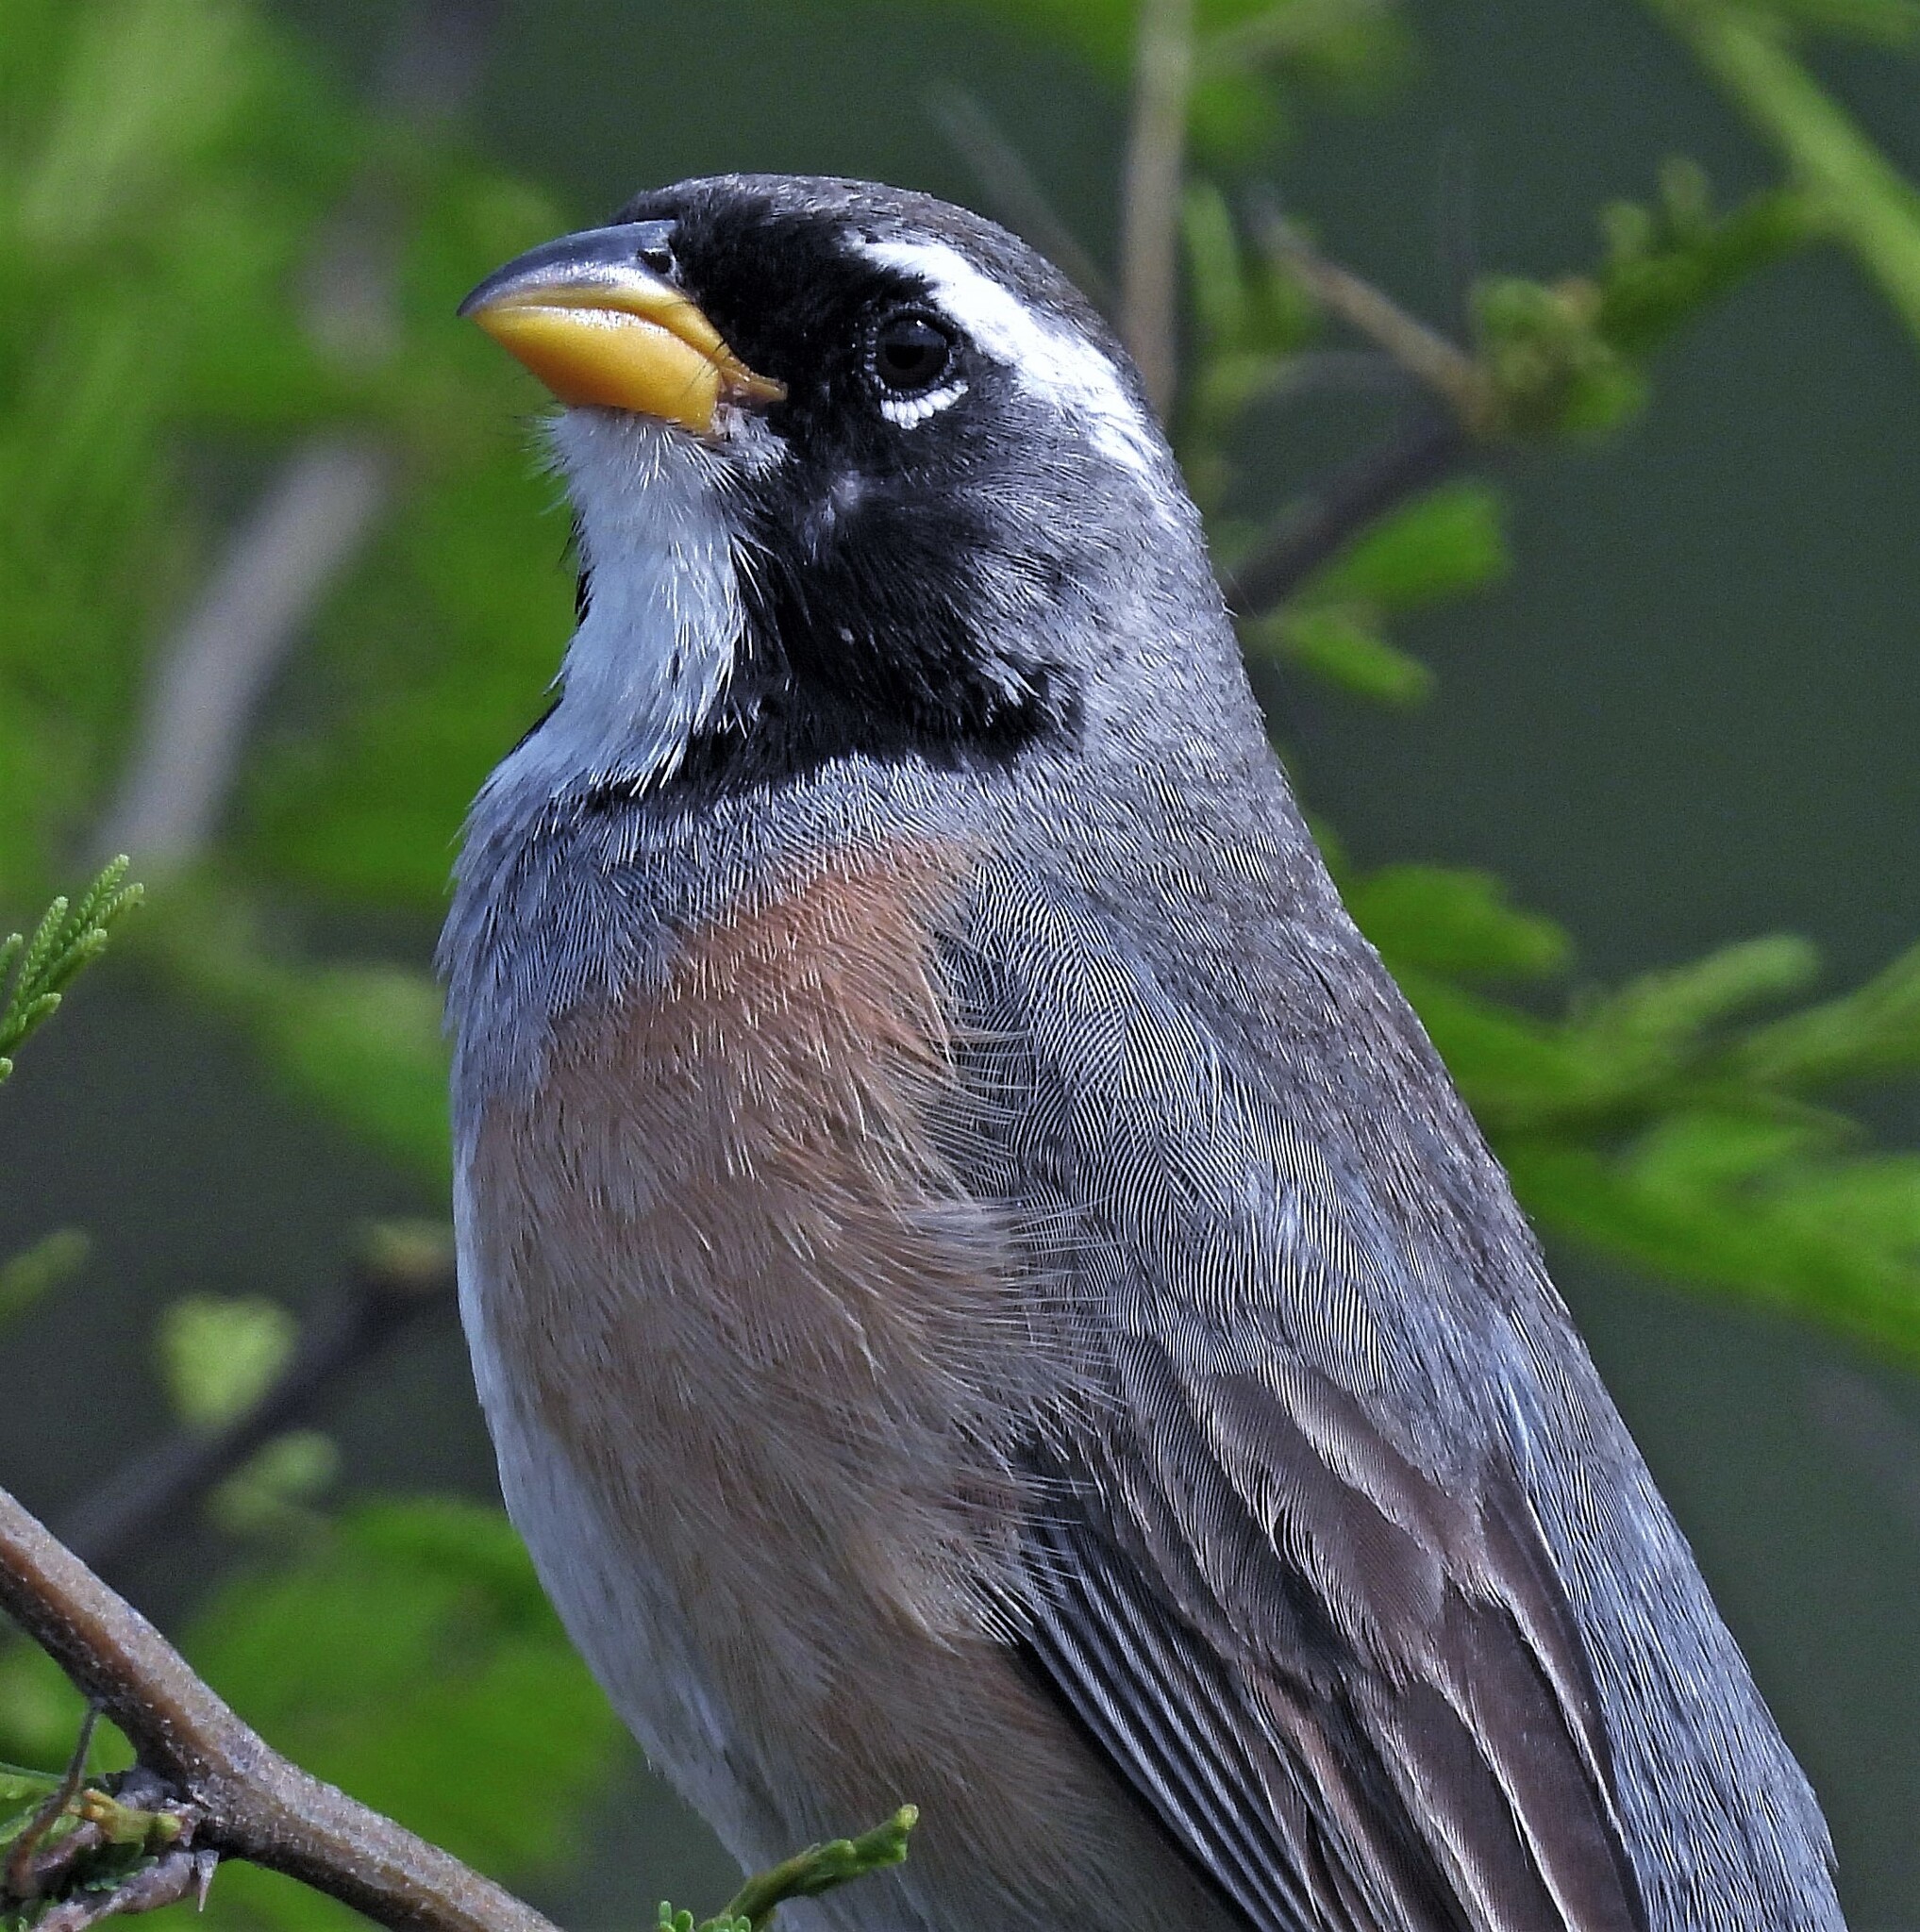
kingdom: Animalia
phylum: Chordata
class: Aves
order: Passeriformes
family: Thraupidae
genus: Saltatricula
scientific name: Saltatricula multicolor
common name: Many-colored chaco finch
